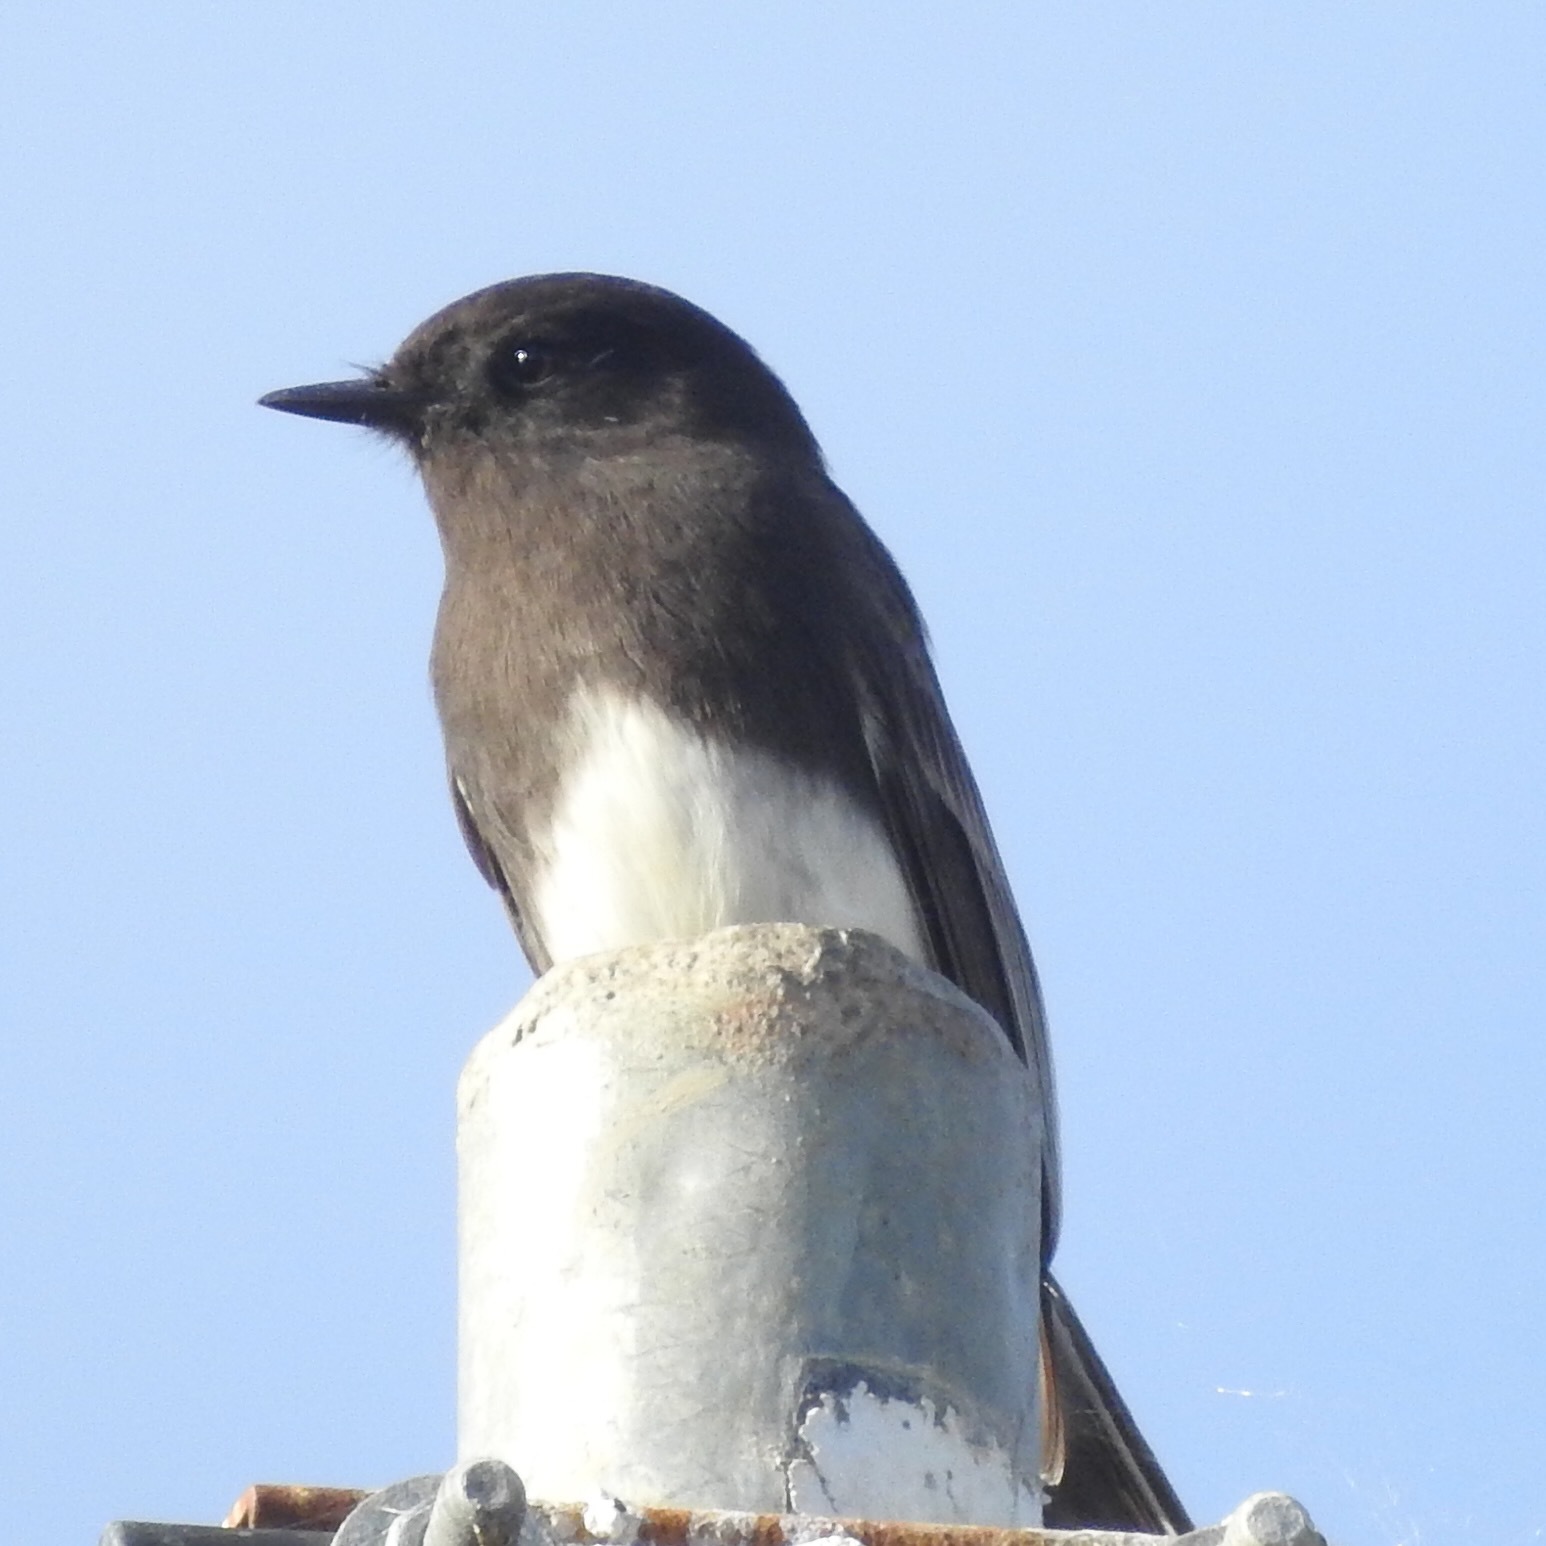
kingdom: Animalia
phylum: Chordata
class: Aves
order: Passeriformes
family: Tyrannidae
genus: Sayornis
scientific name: Sayornis nigricans
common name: Black phoebe
